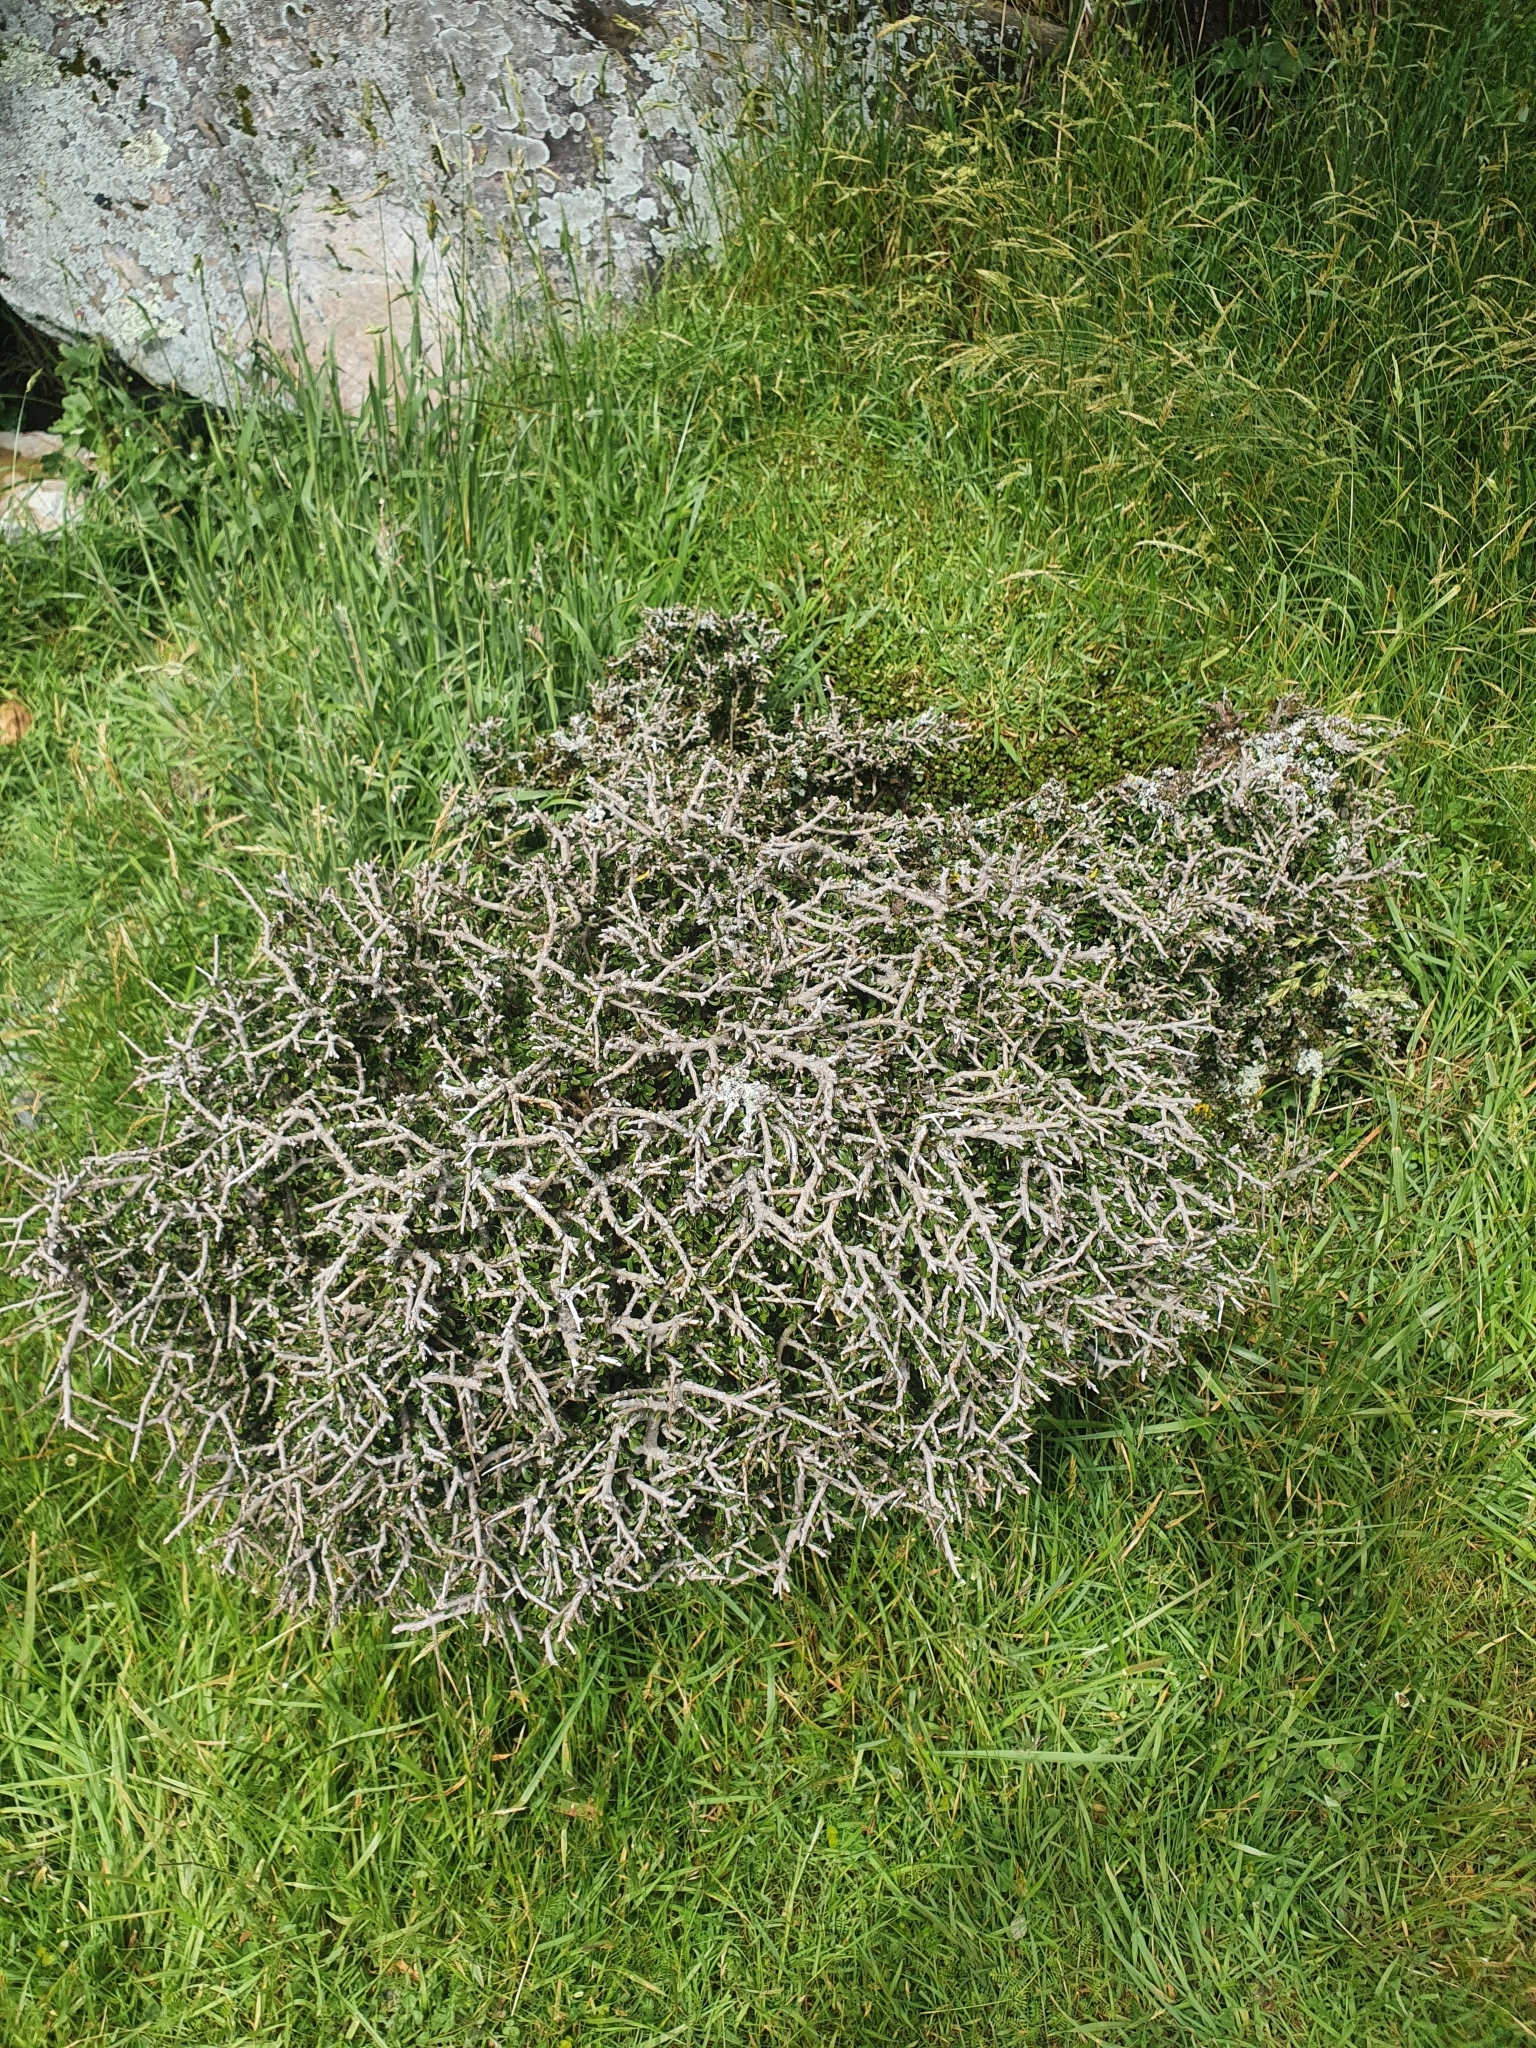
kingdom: Plantae
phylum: Tracheophyta
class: Magnoliopsida
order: Malpighiales
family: Violaceae
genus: Melicytus
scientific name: Melicytus alpinus
